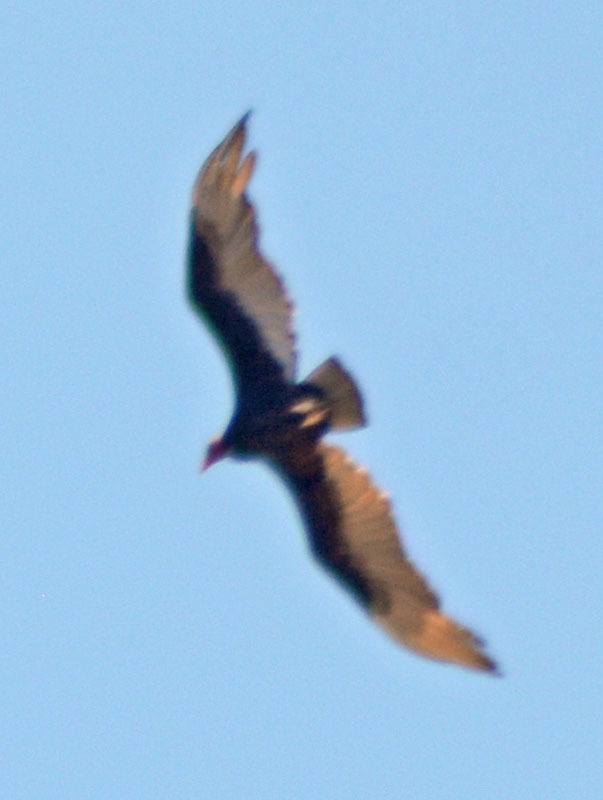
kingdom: Animalia
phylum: Chordata
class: Aves
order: Accipitriformes
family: Cathartidae
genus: Cathartes
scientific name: Cathartes aura
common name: Turkey vulture
